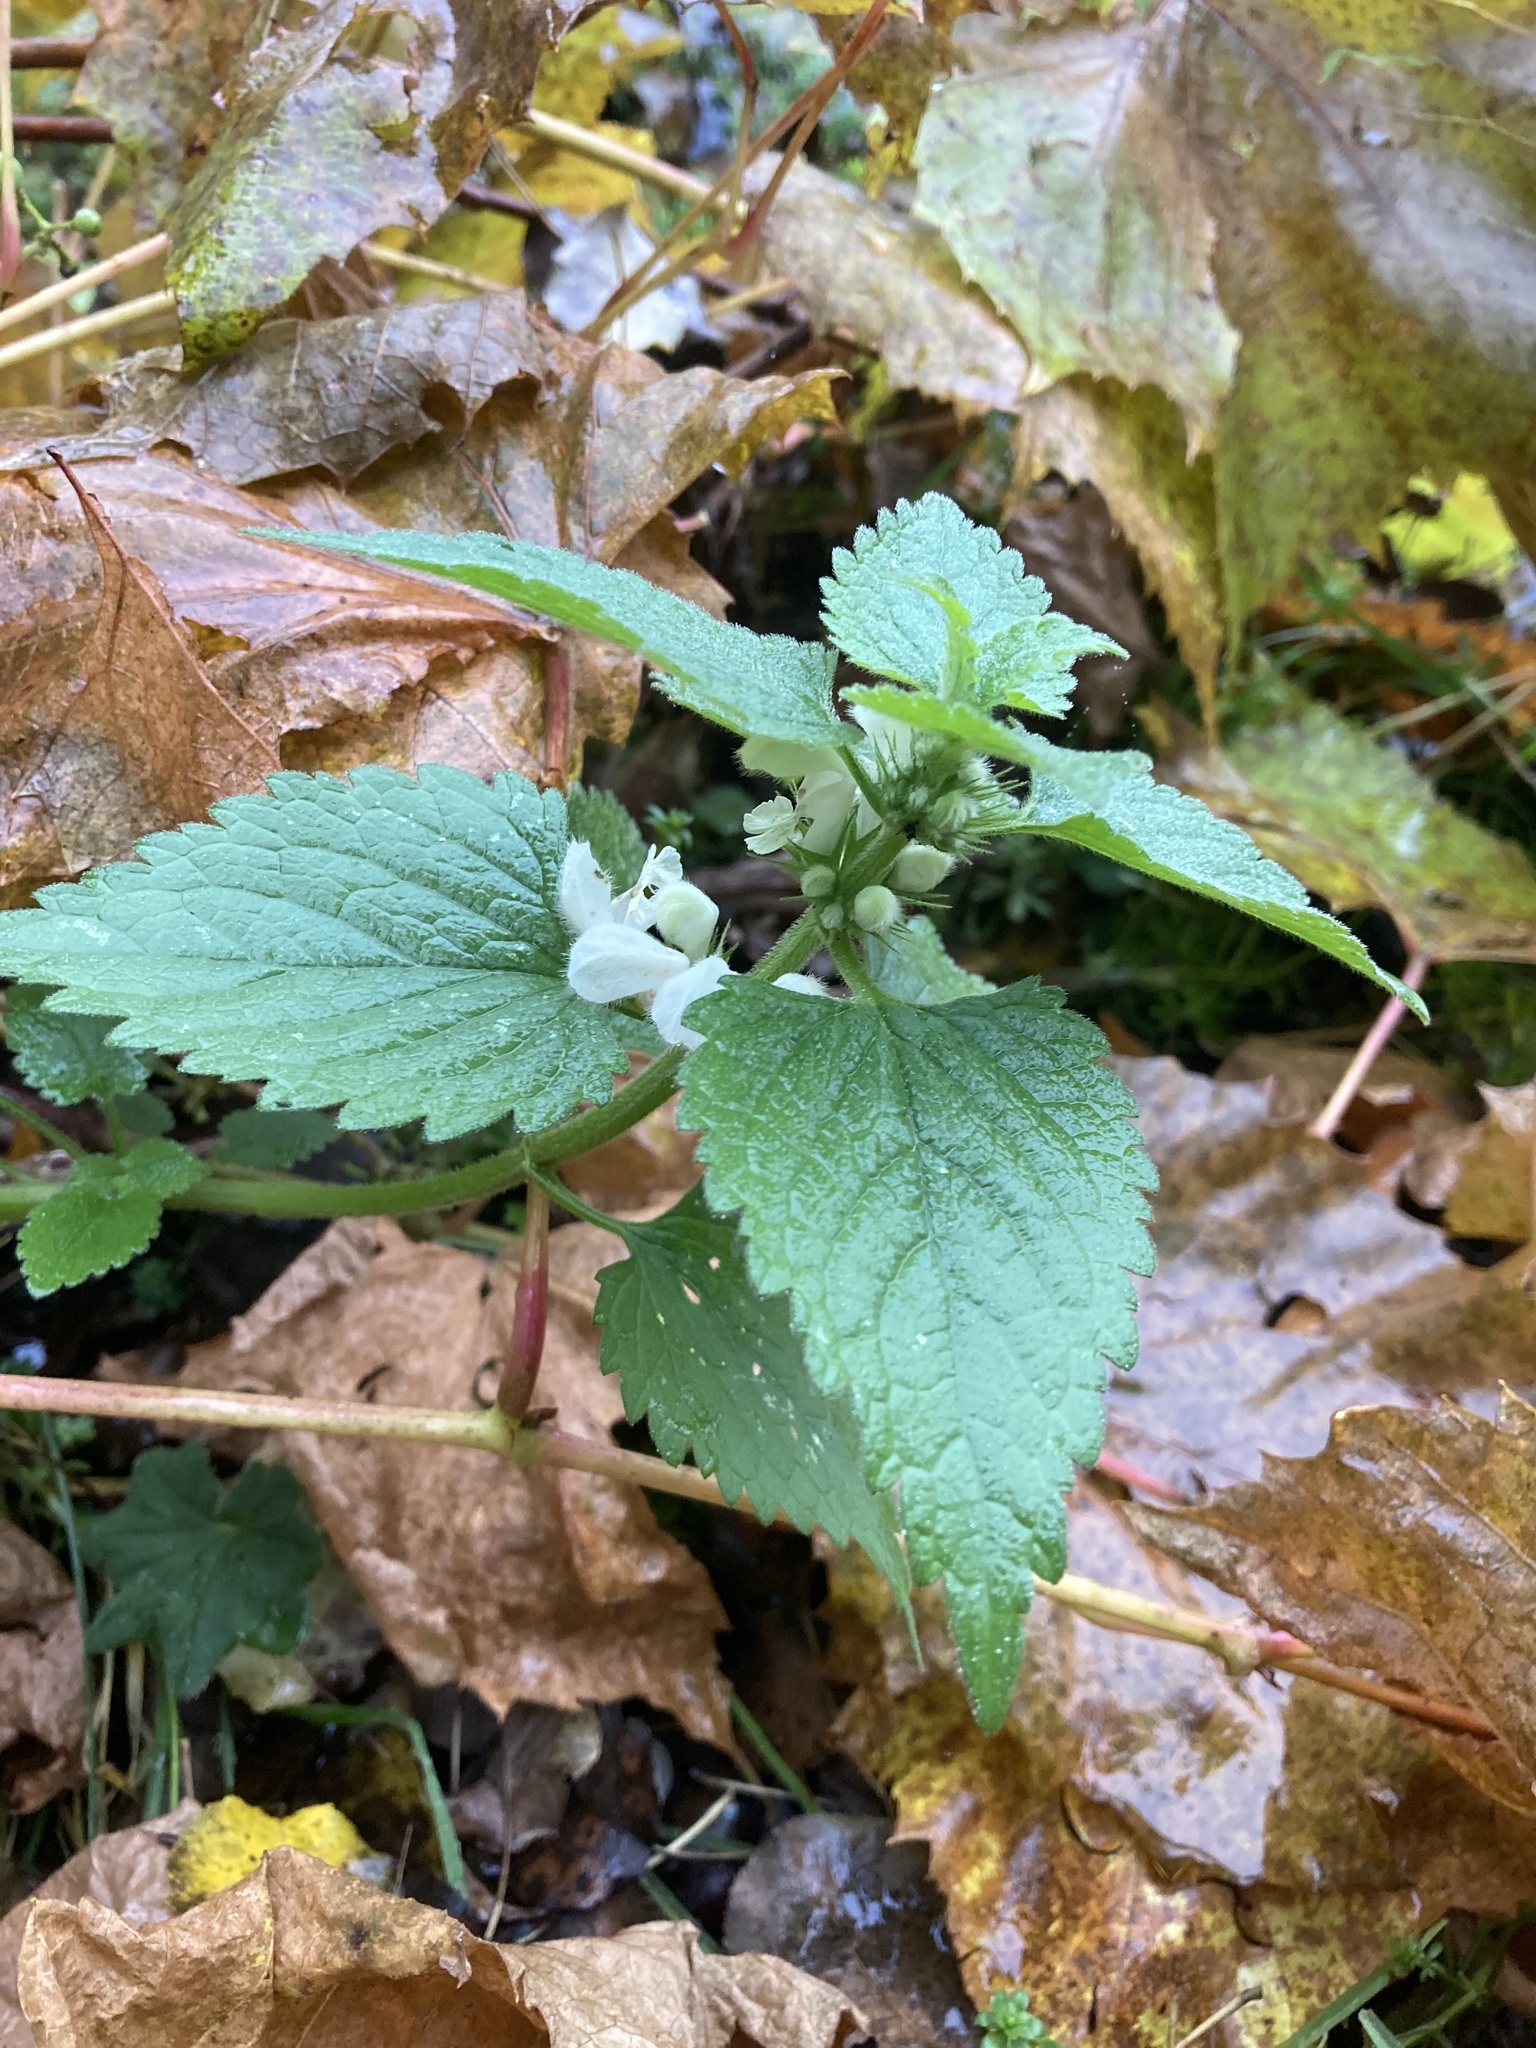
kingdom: Plantae
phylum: Tracheophyta
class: Magnoliopsida
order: Lamiales
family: Lamiaceae
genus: Lamium
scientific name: Lamium album
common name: White dead-nettle
